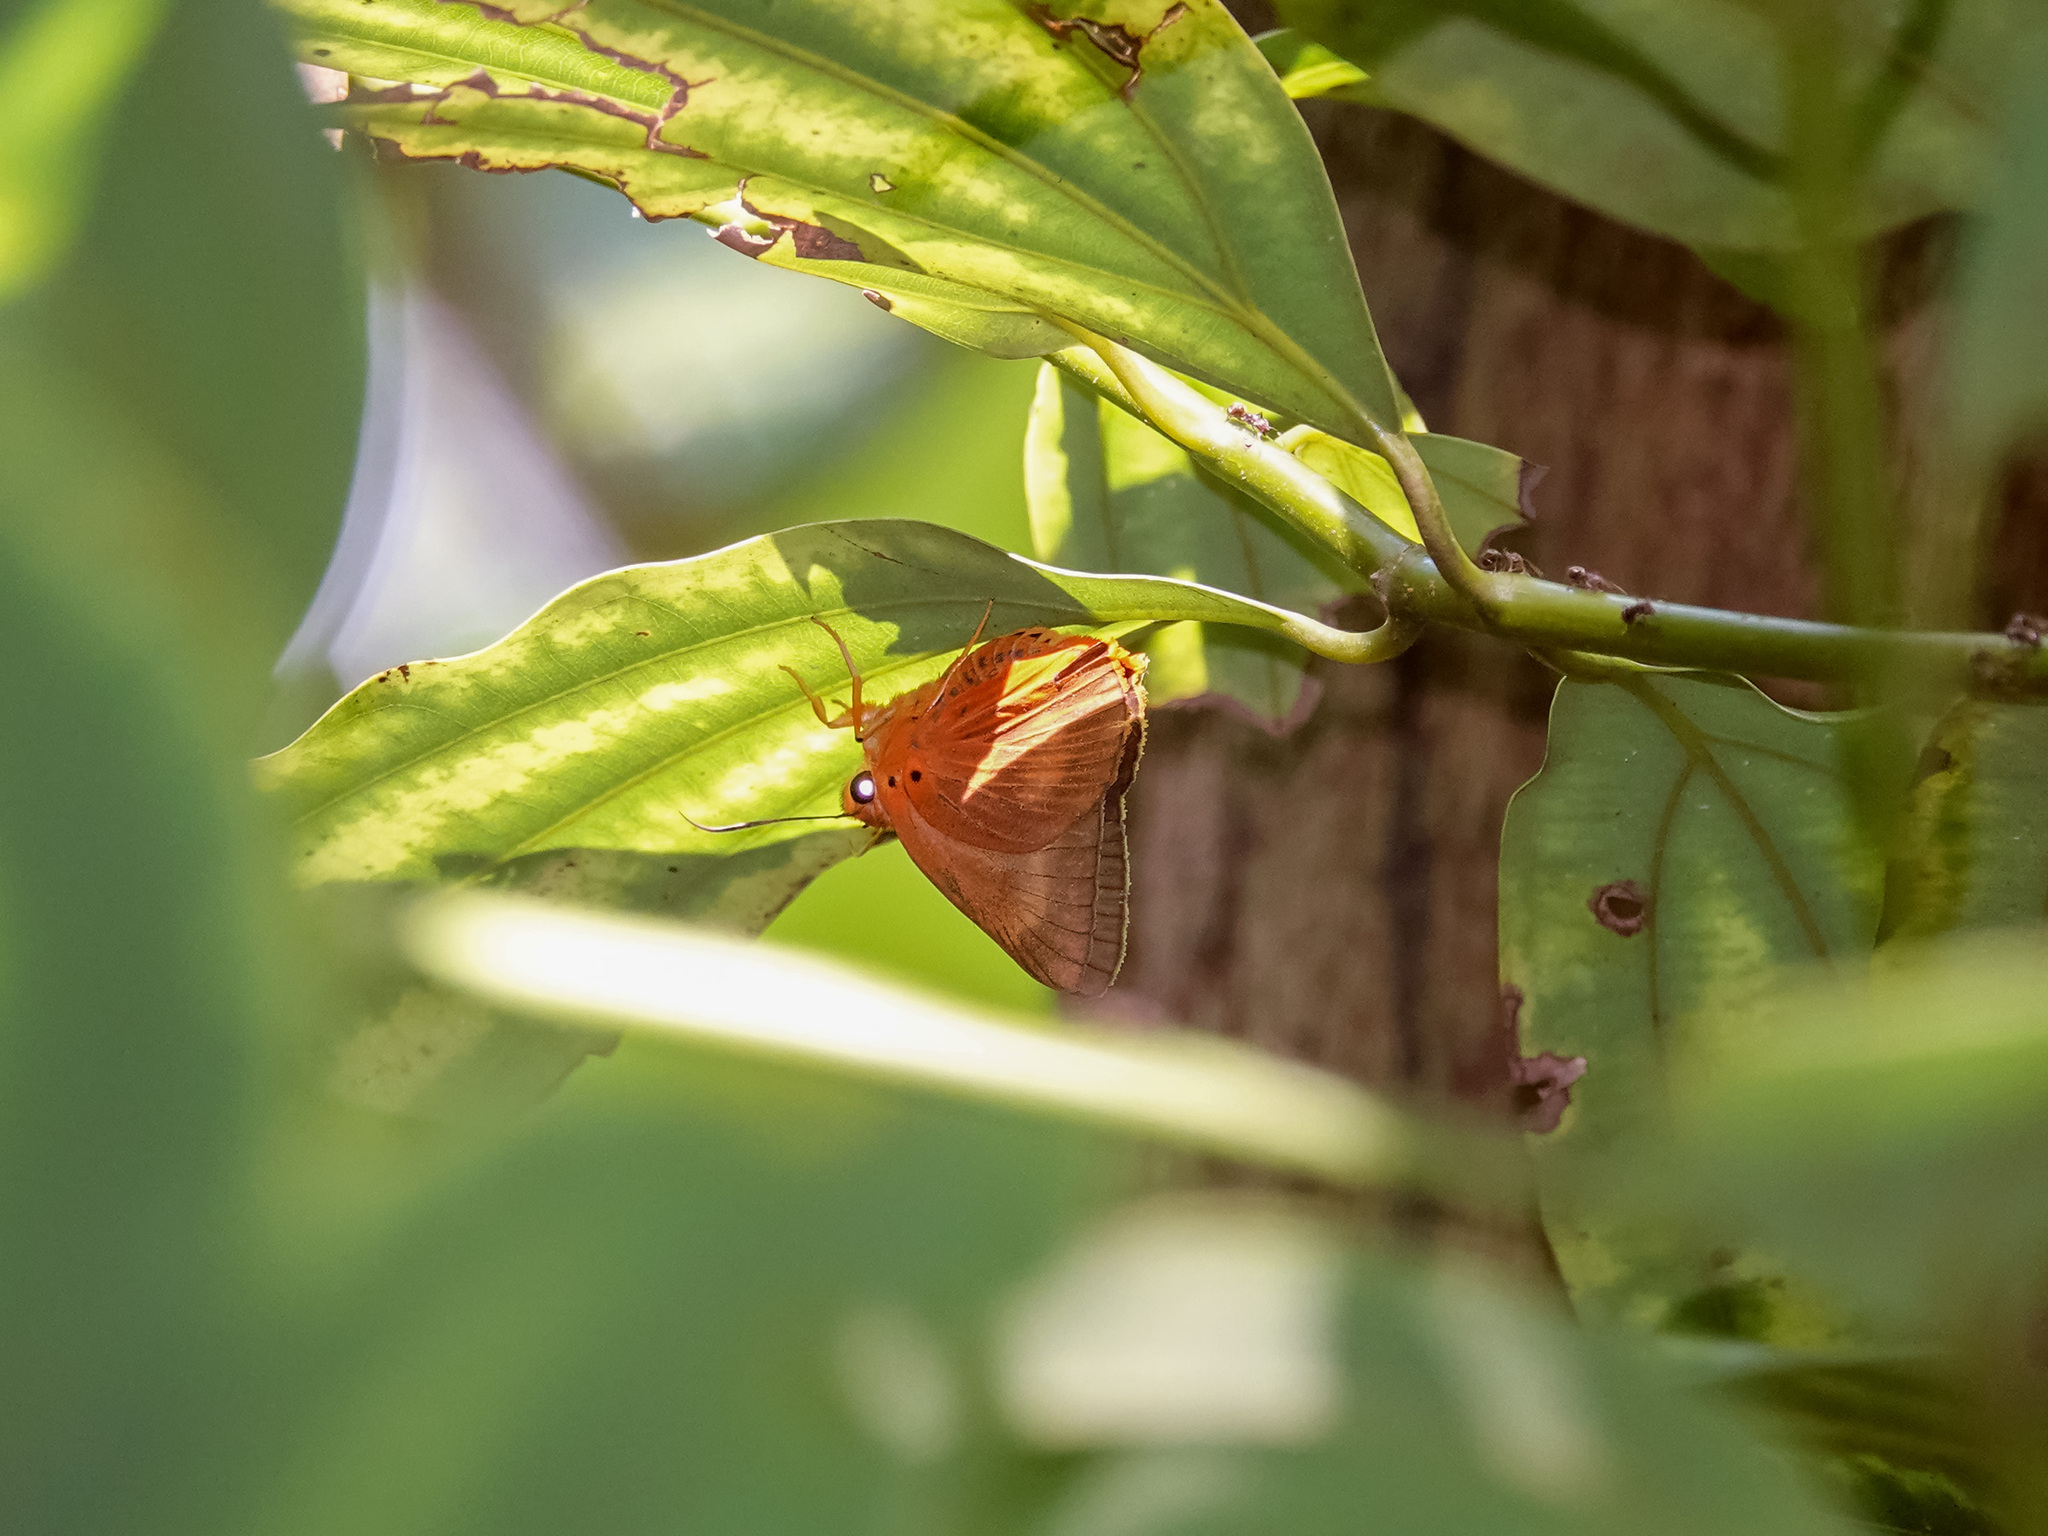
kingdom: Animalia
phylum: Arthropoda
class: Insecta
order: Lepidoptera
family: Hesperiidae
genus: Bibasis
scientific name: Bibasis harisa
